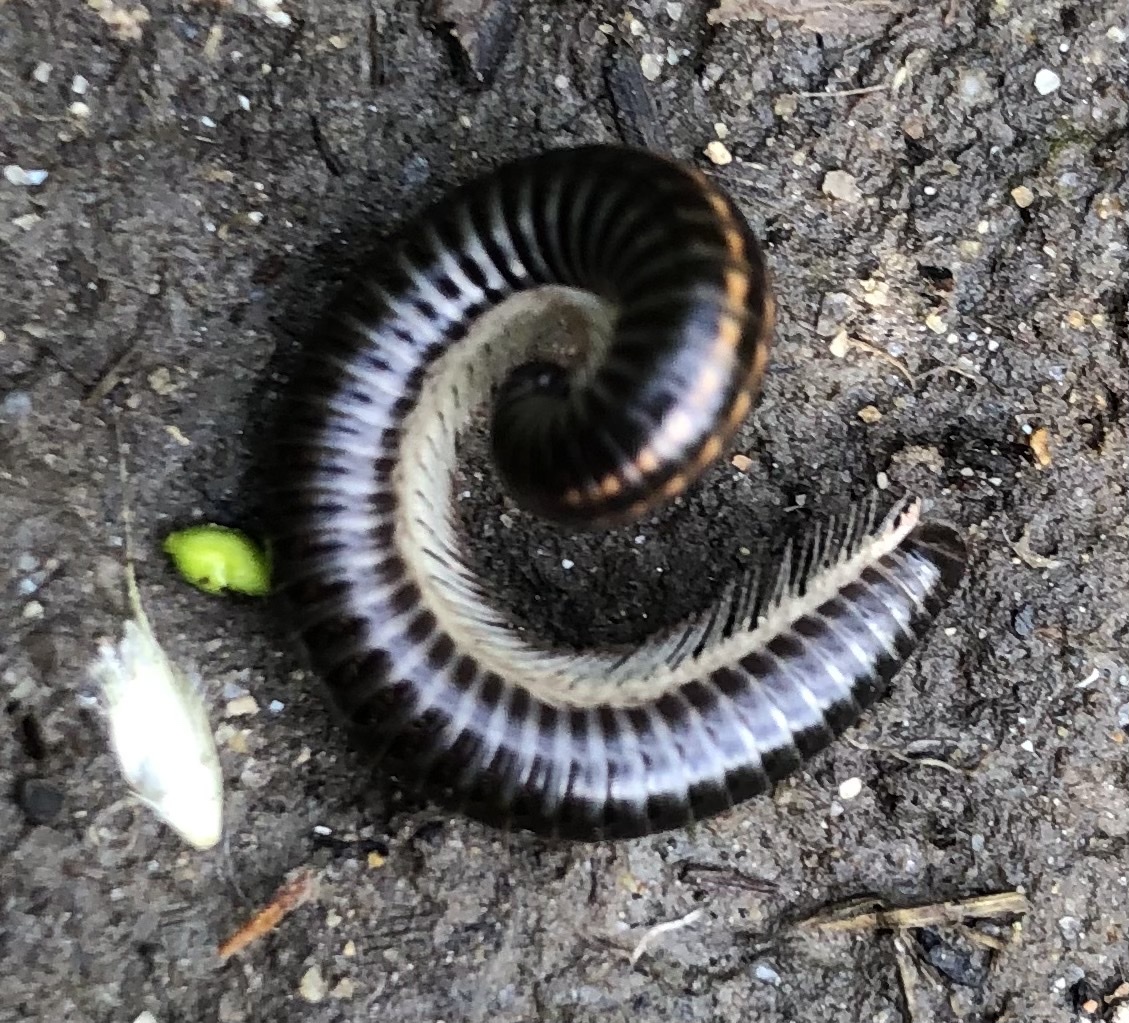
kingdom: Animalia
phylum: Arthropoda
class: Diplopoda
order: Julida
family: Julidae
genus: Ommatoiulus
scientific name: Ommatoiulus sabulosus
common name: Striped millipede
